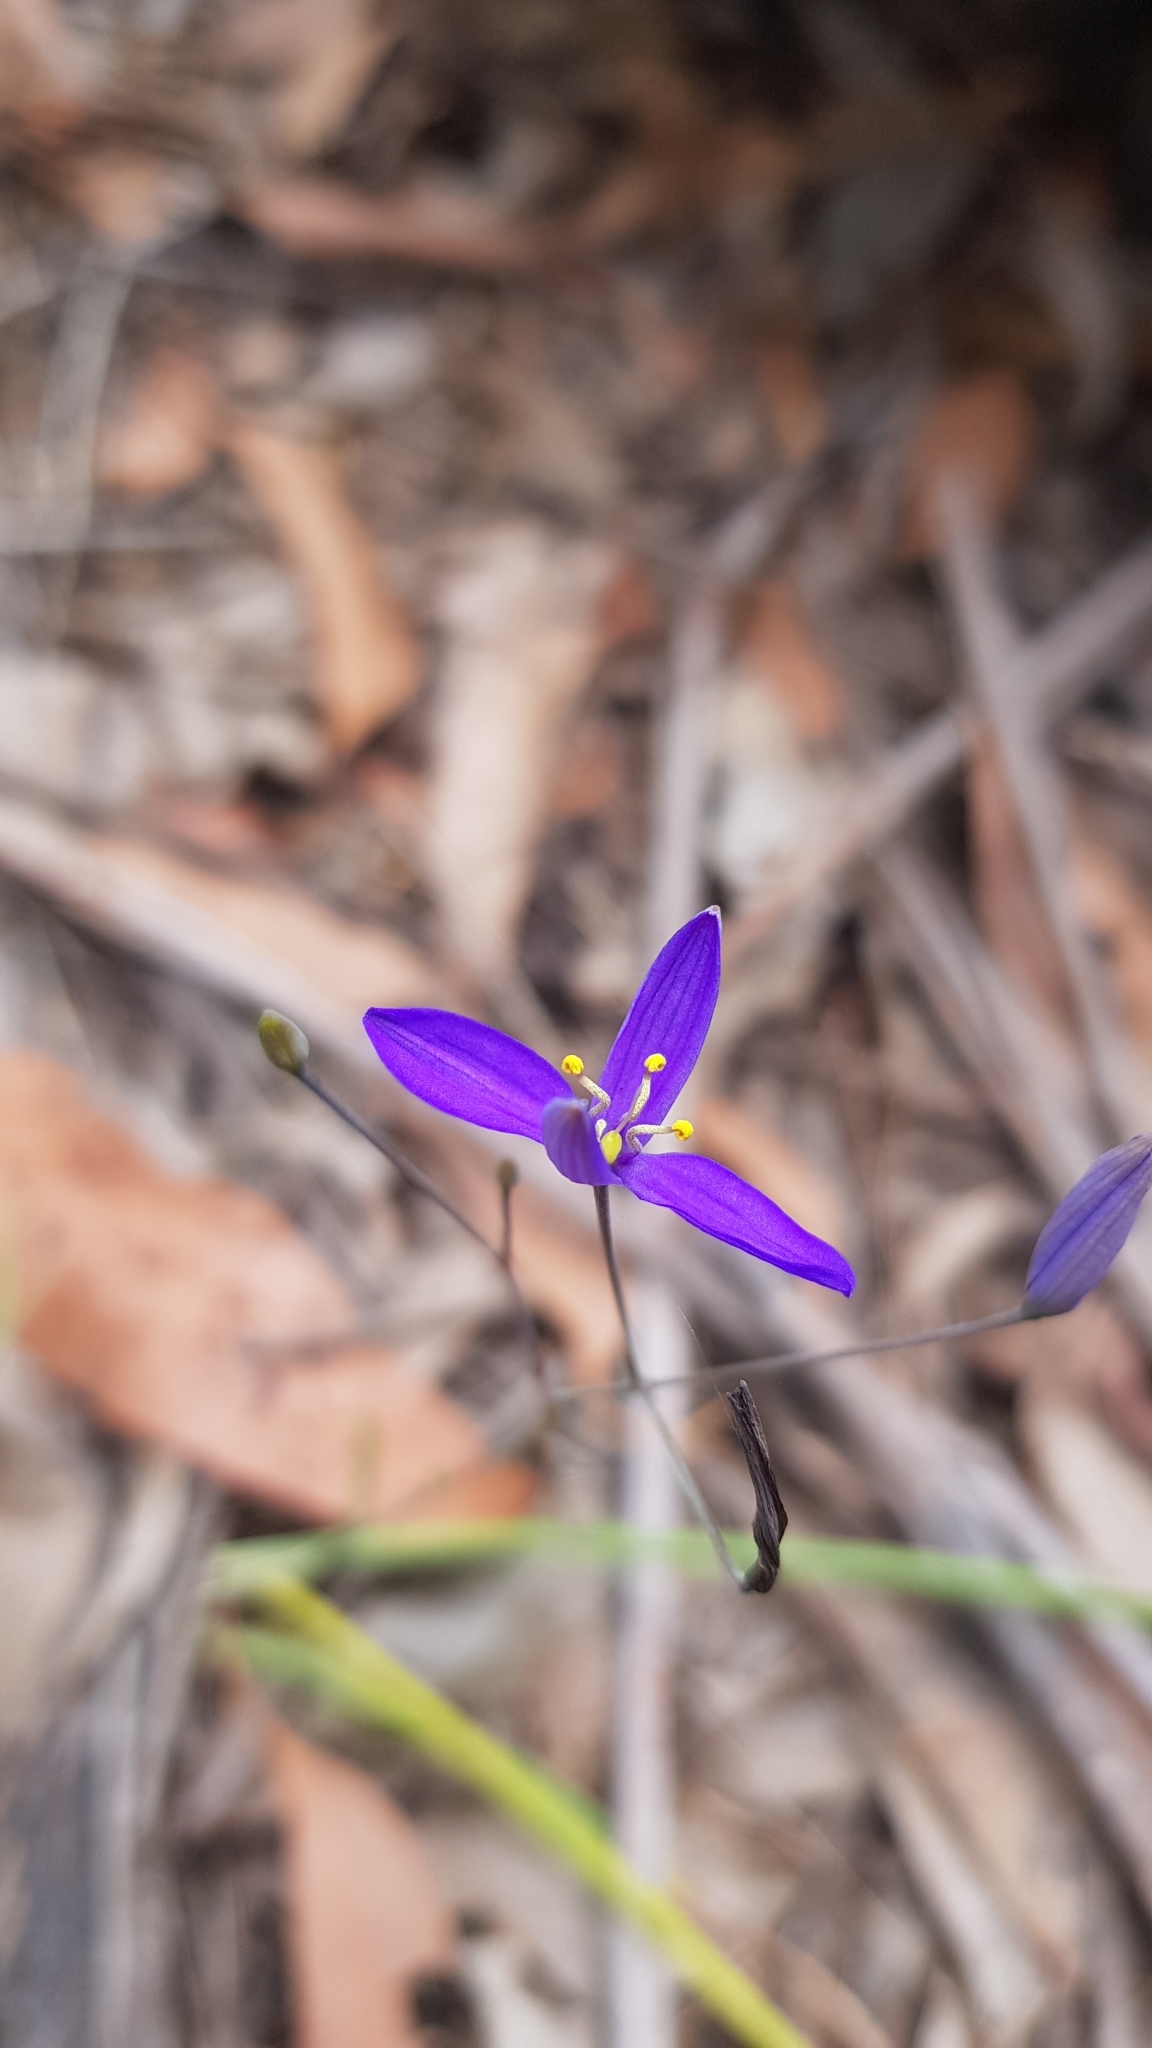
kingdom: Plantae
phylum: Tracheophyta
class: Liliopsida
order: Asparagales
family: Asphodelaceae
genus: Thelionema
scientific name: Thelionema caespitosum
